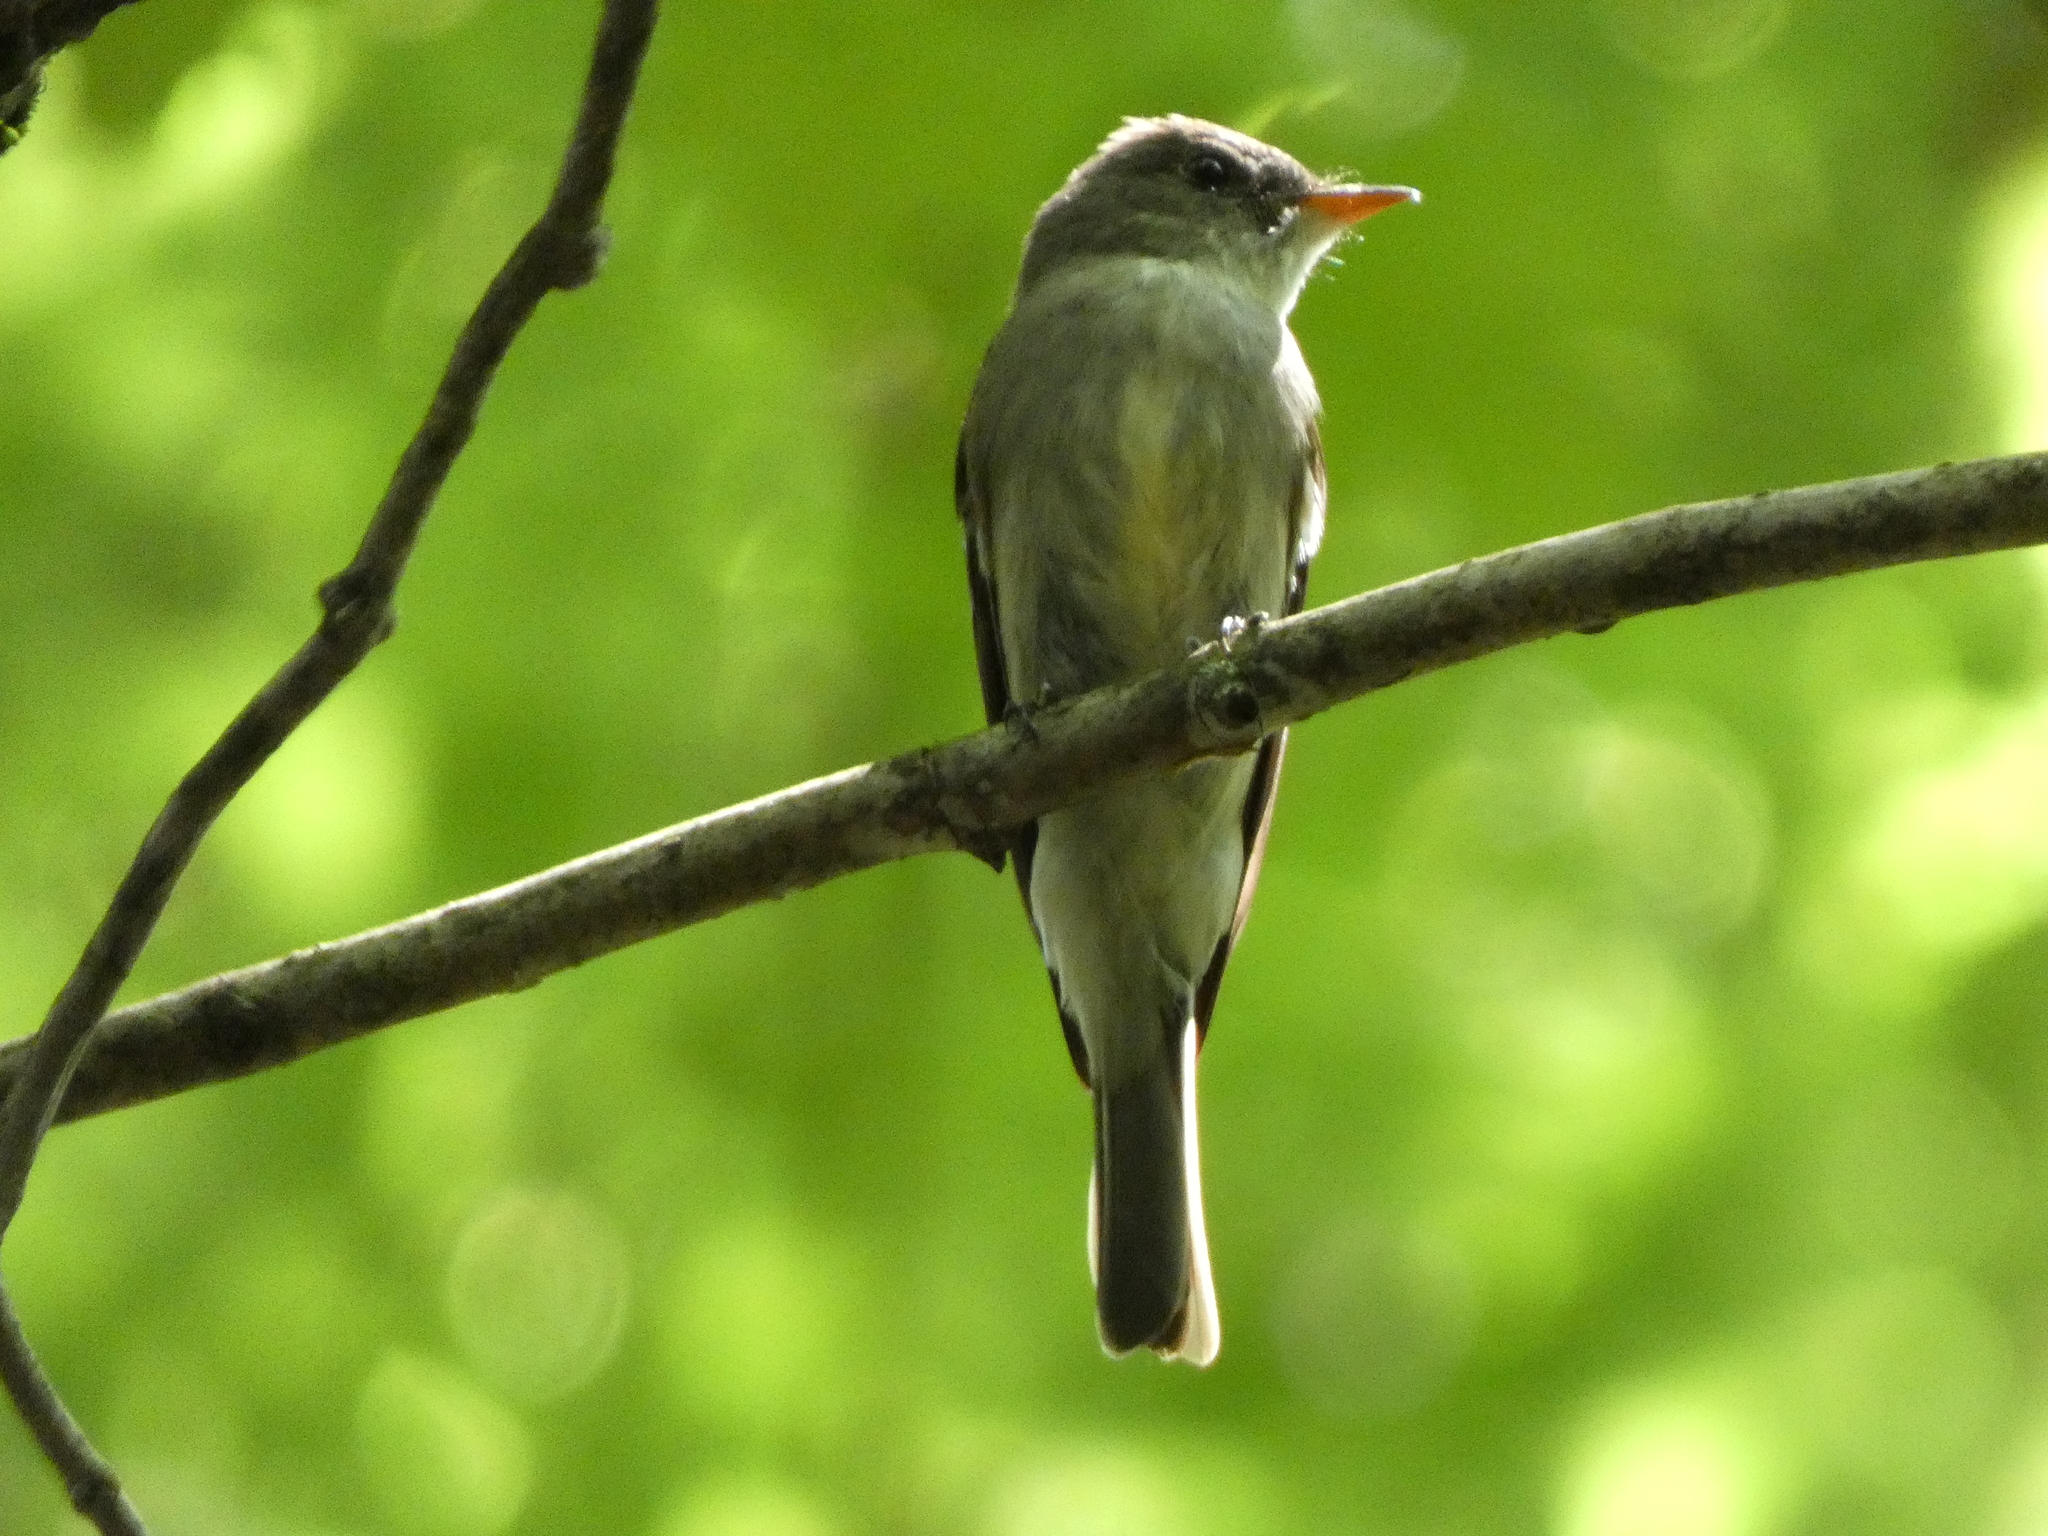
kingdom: Animalia
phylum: Chordata
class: Aves
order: Passeriformes
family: Tyrannidae
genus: Contopus
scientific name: Contopus virens
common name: Eastern wood-pewee
